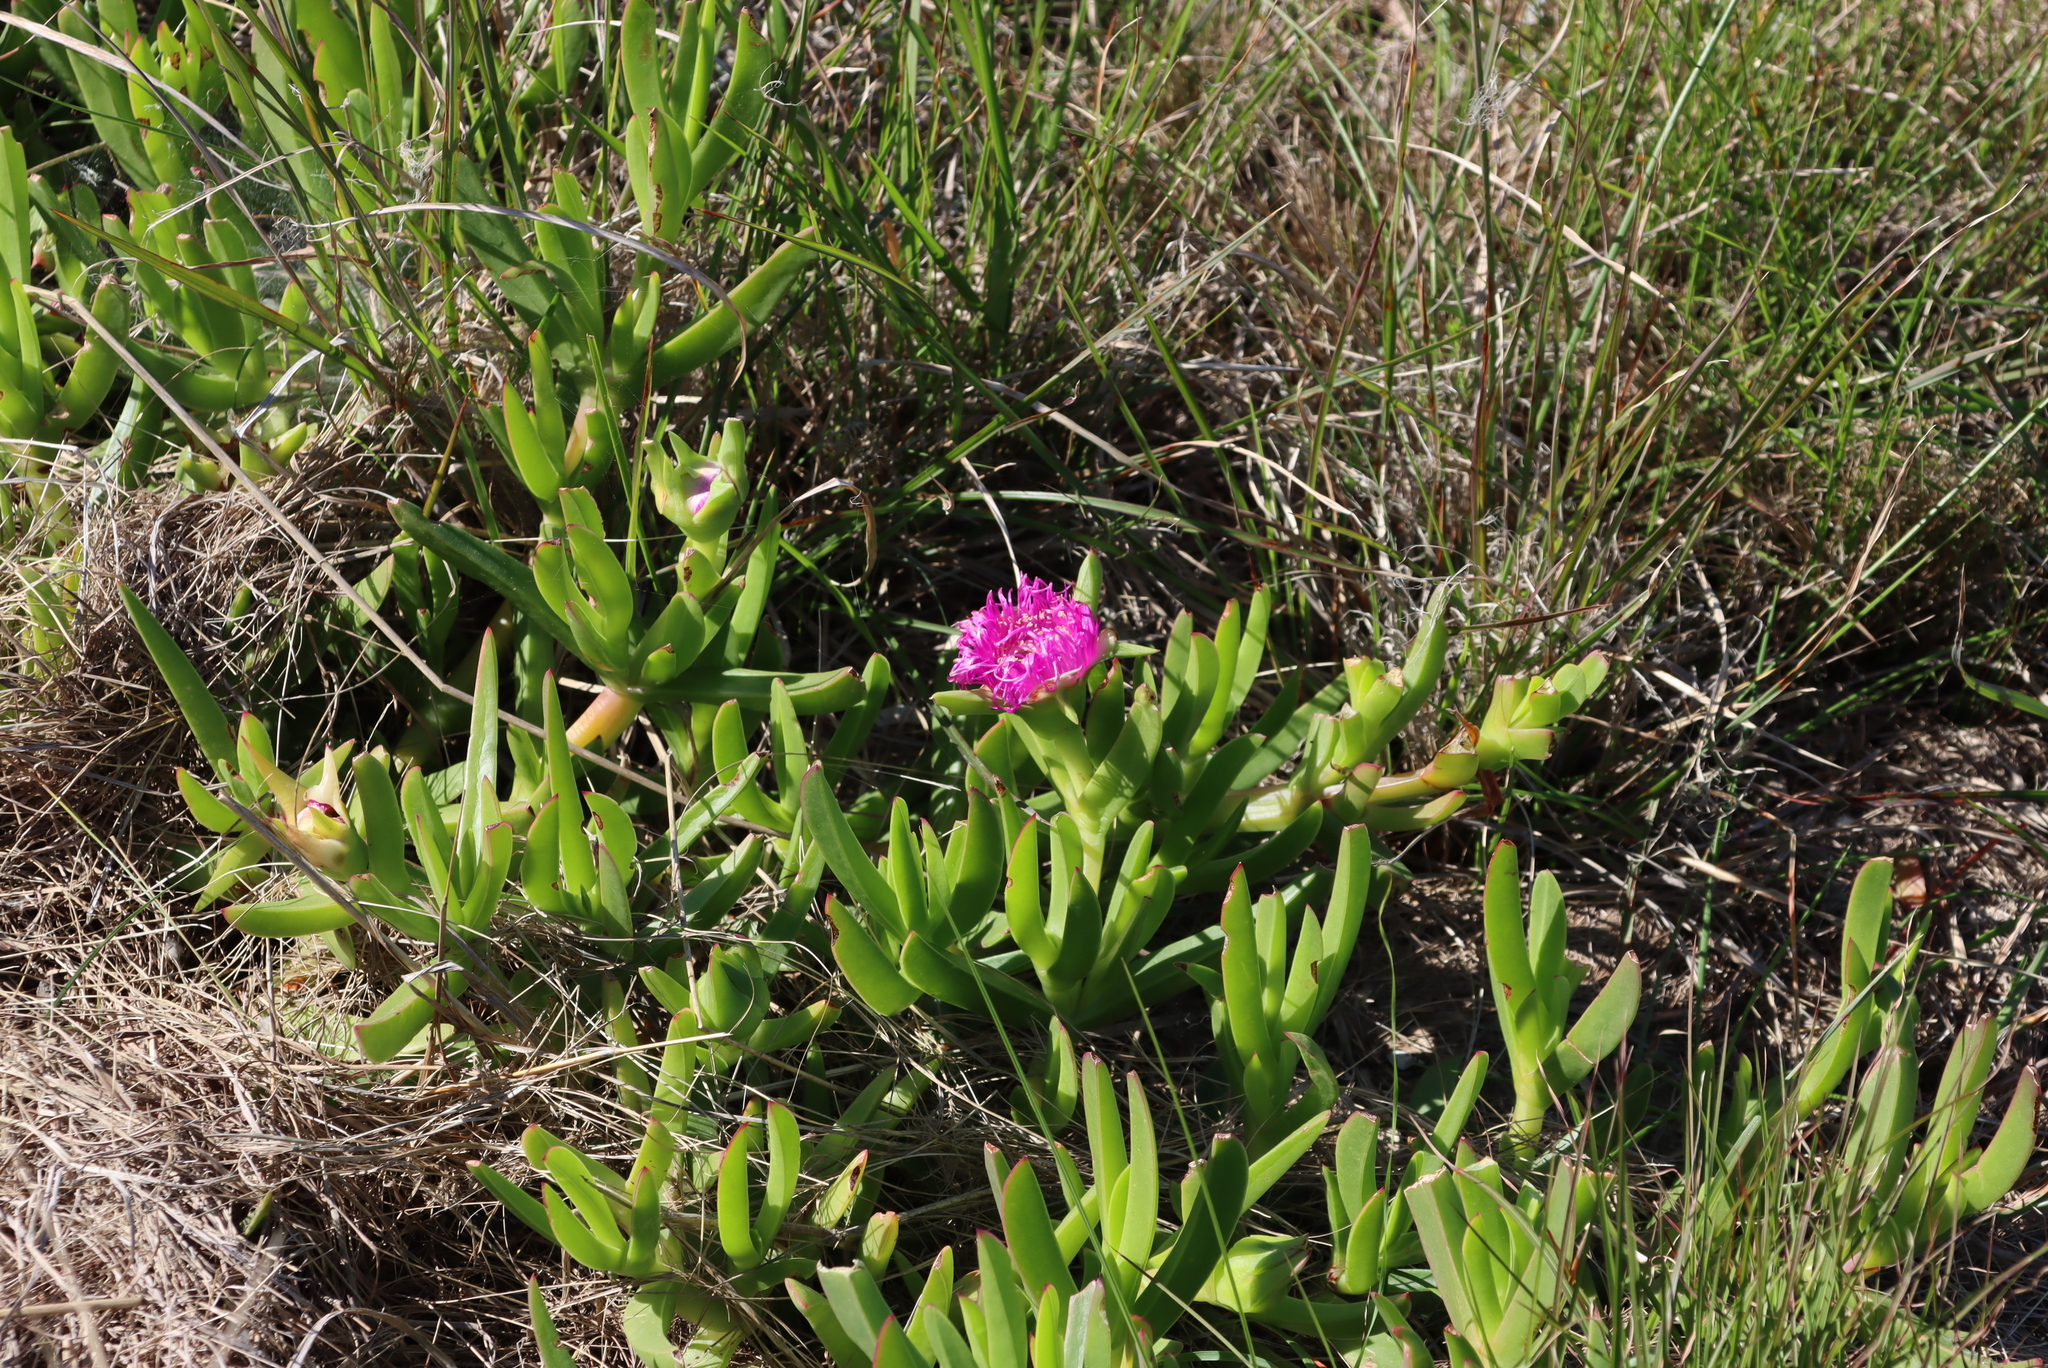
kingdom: Plantae
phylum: Tracheophyta
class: Magnoliopsida
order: Caryophyllales
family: Aizoaceae
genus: Carpobrotus
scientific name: Carpobrotus deliciosus
